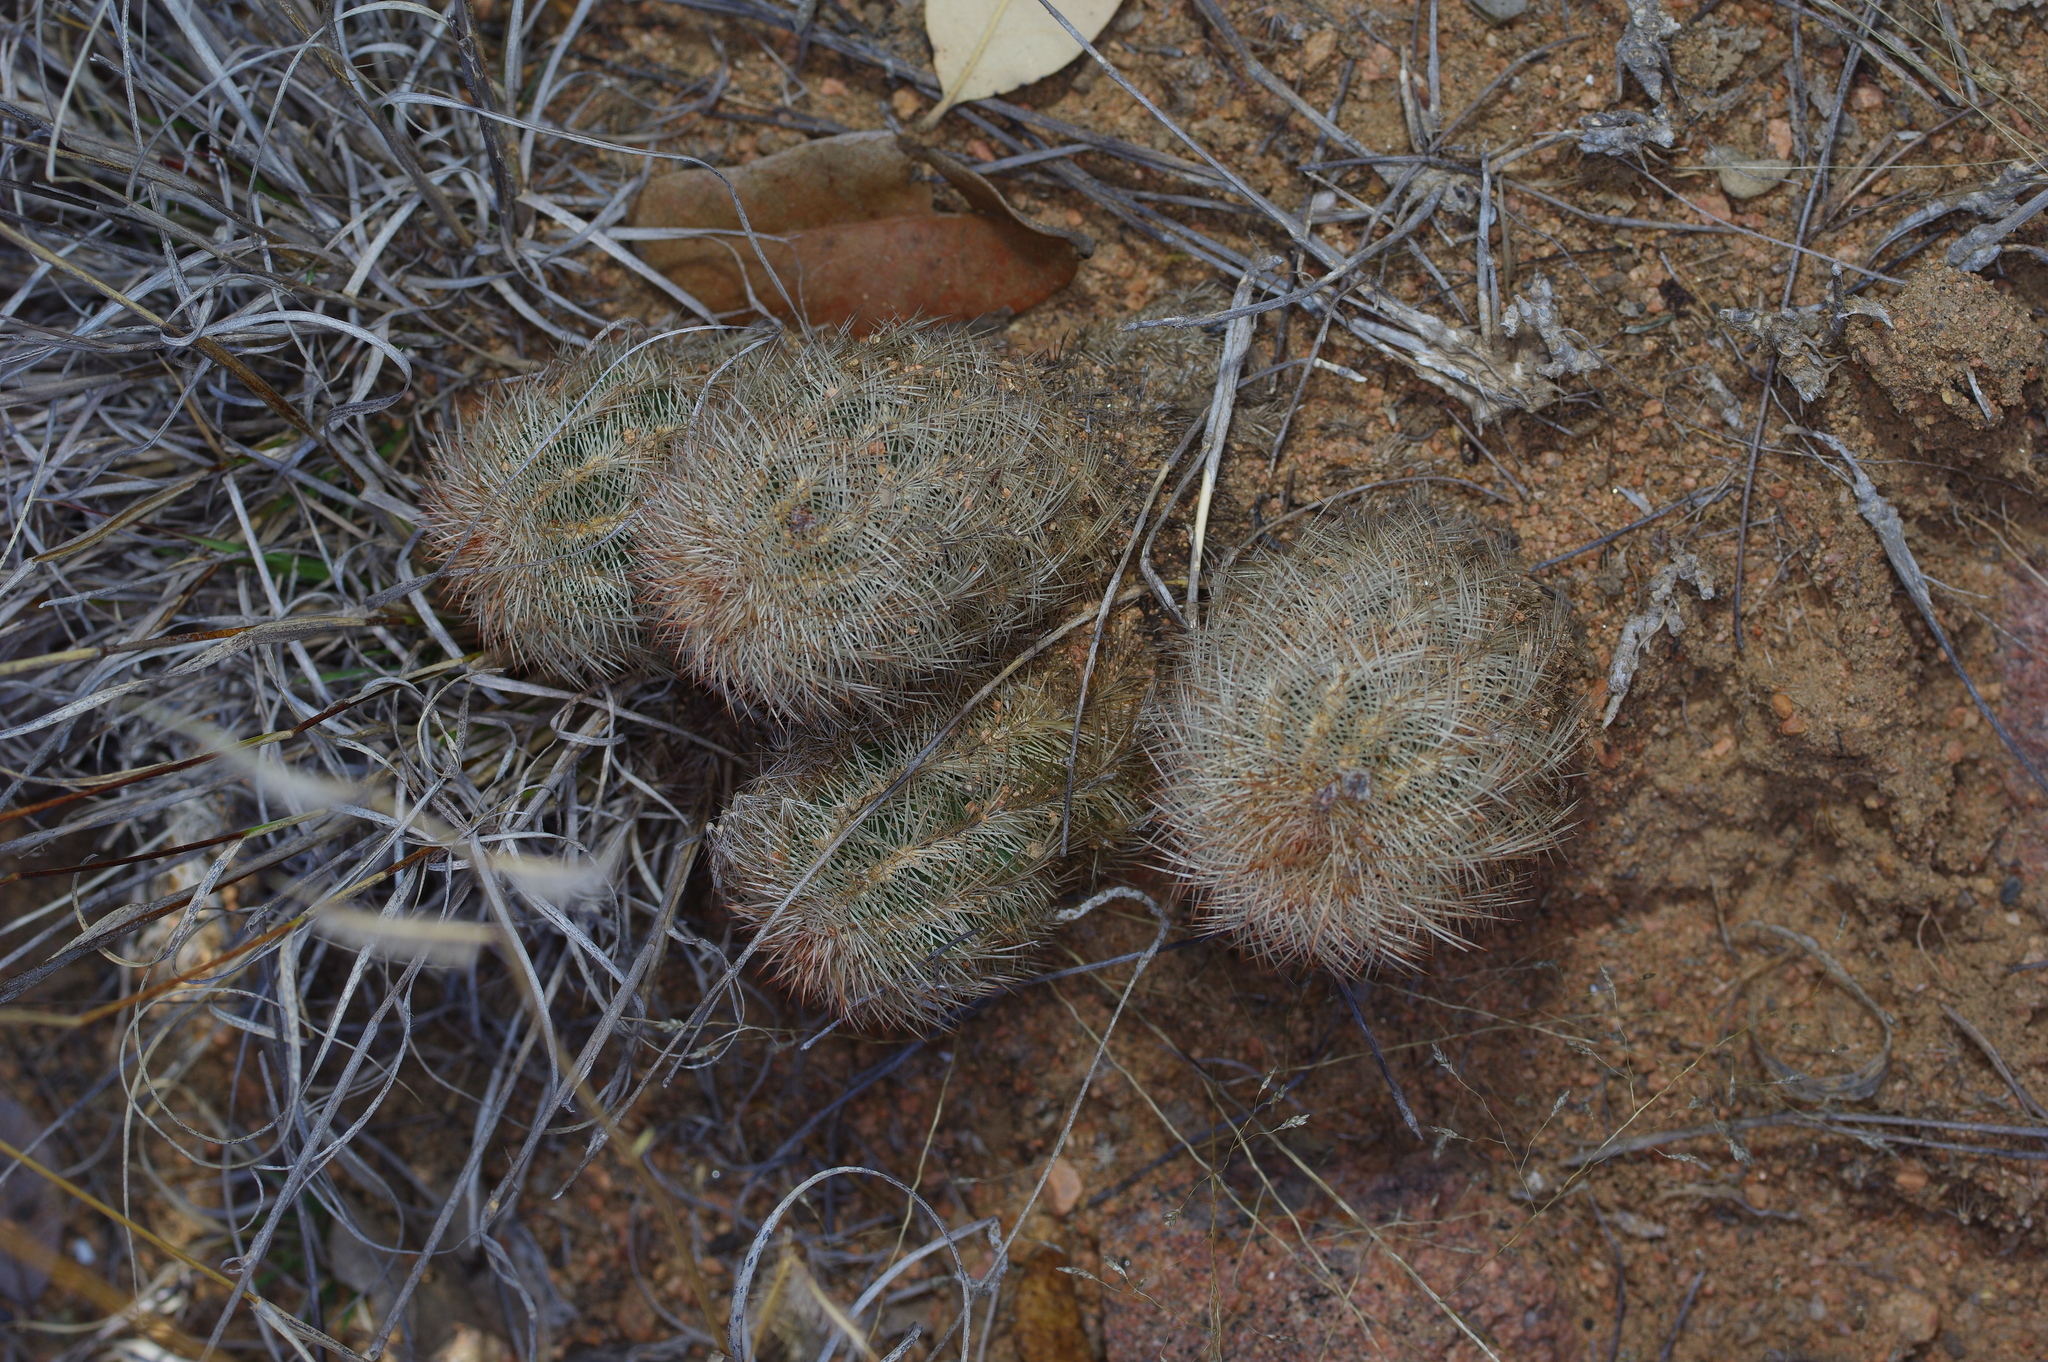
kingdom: Plantae
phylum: Tracheophyta
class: Magnoliopsida
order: Caryophyllales
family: Cactaceae
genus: Echinocereus
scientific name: Echinocereus reichenbachii
